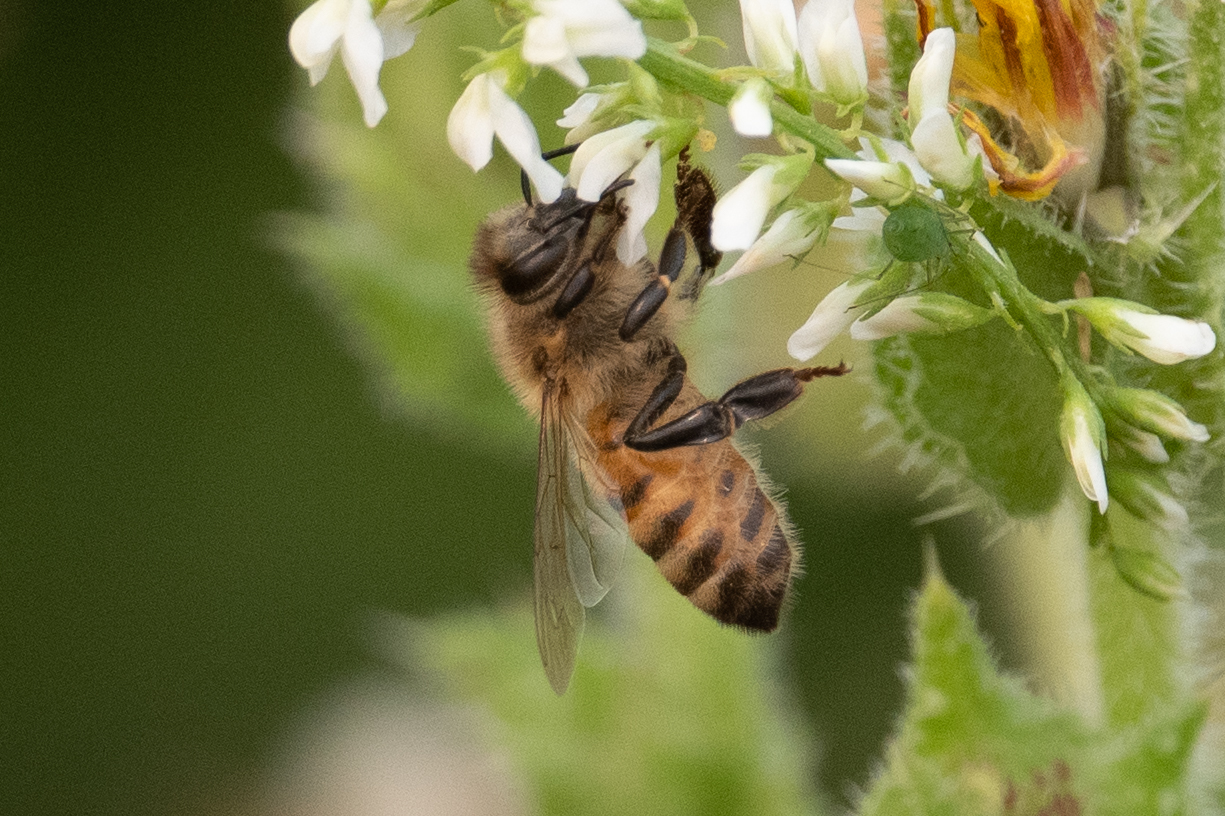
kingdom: Animalia
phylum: Arthropoda
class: Insecta
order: Hymenoptera
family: Apidae
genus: Apis
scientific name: Apis mellifera
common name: Honey bee
